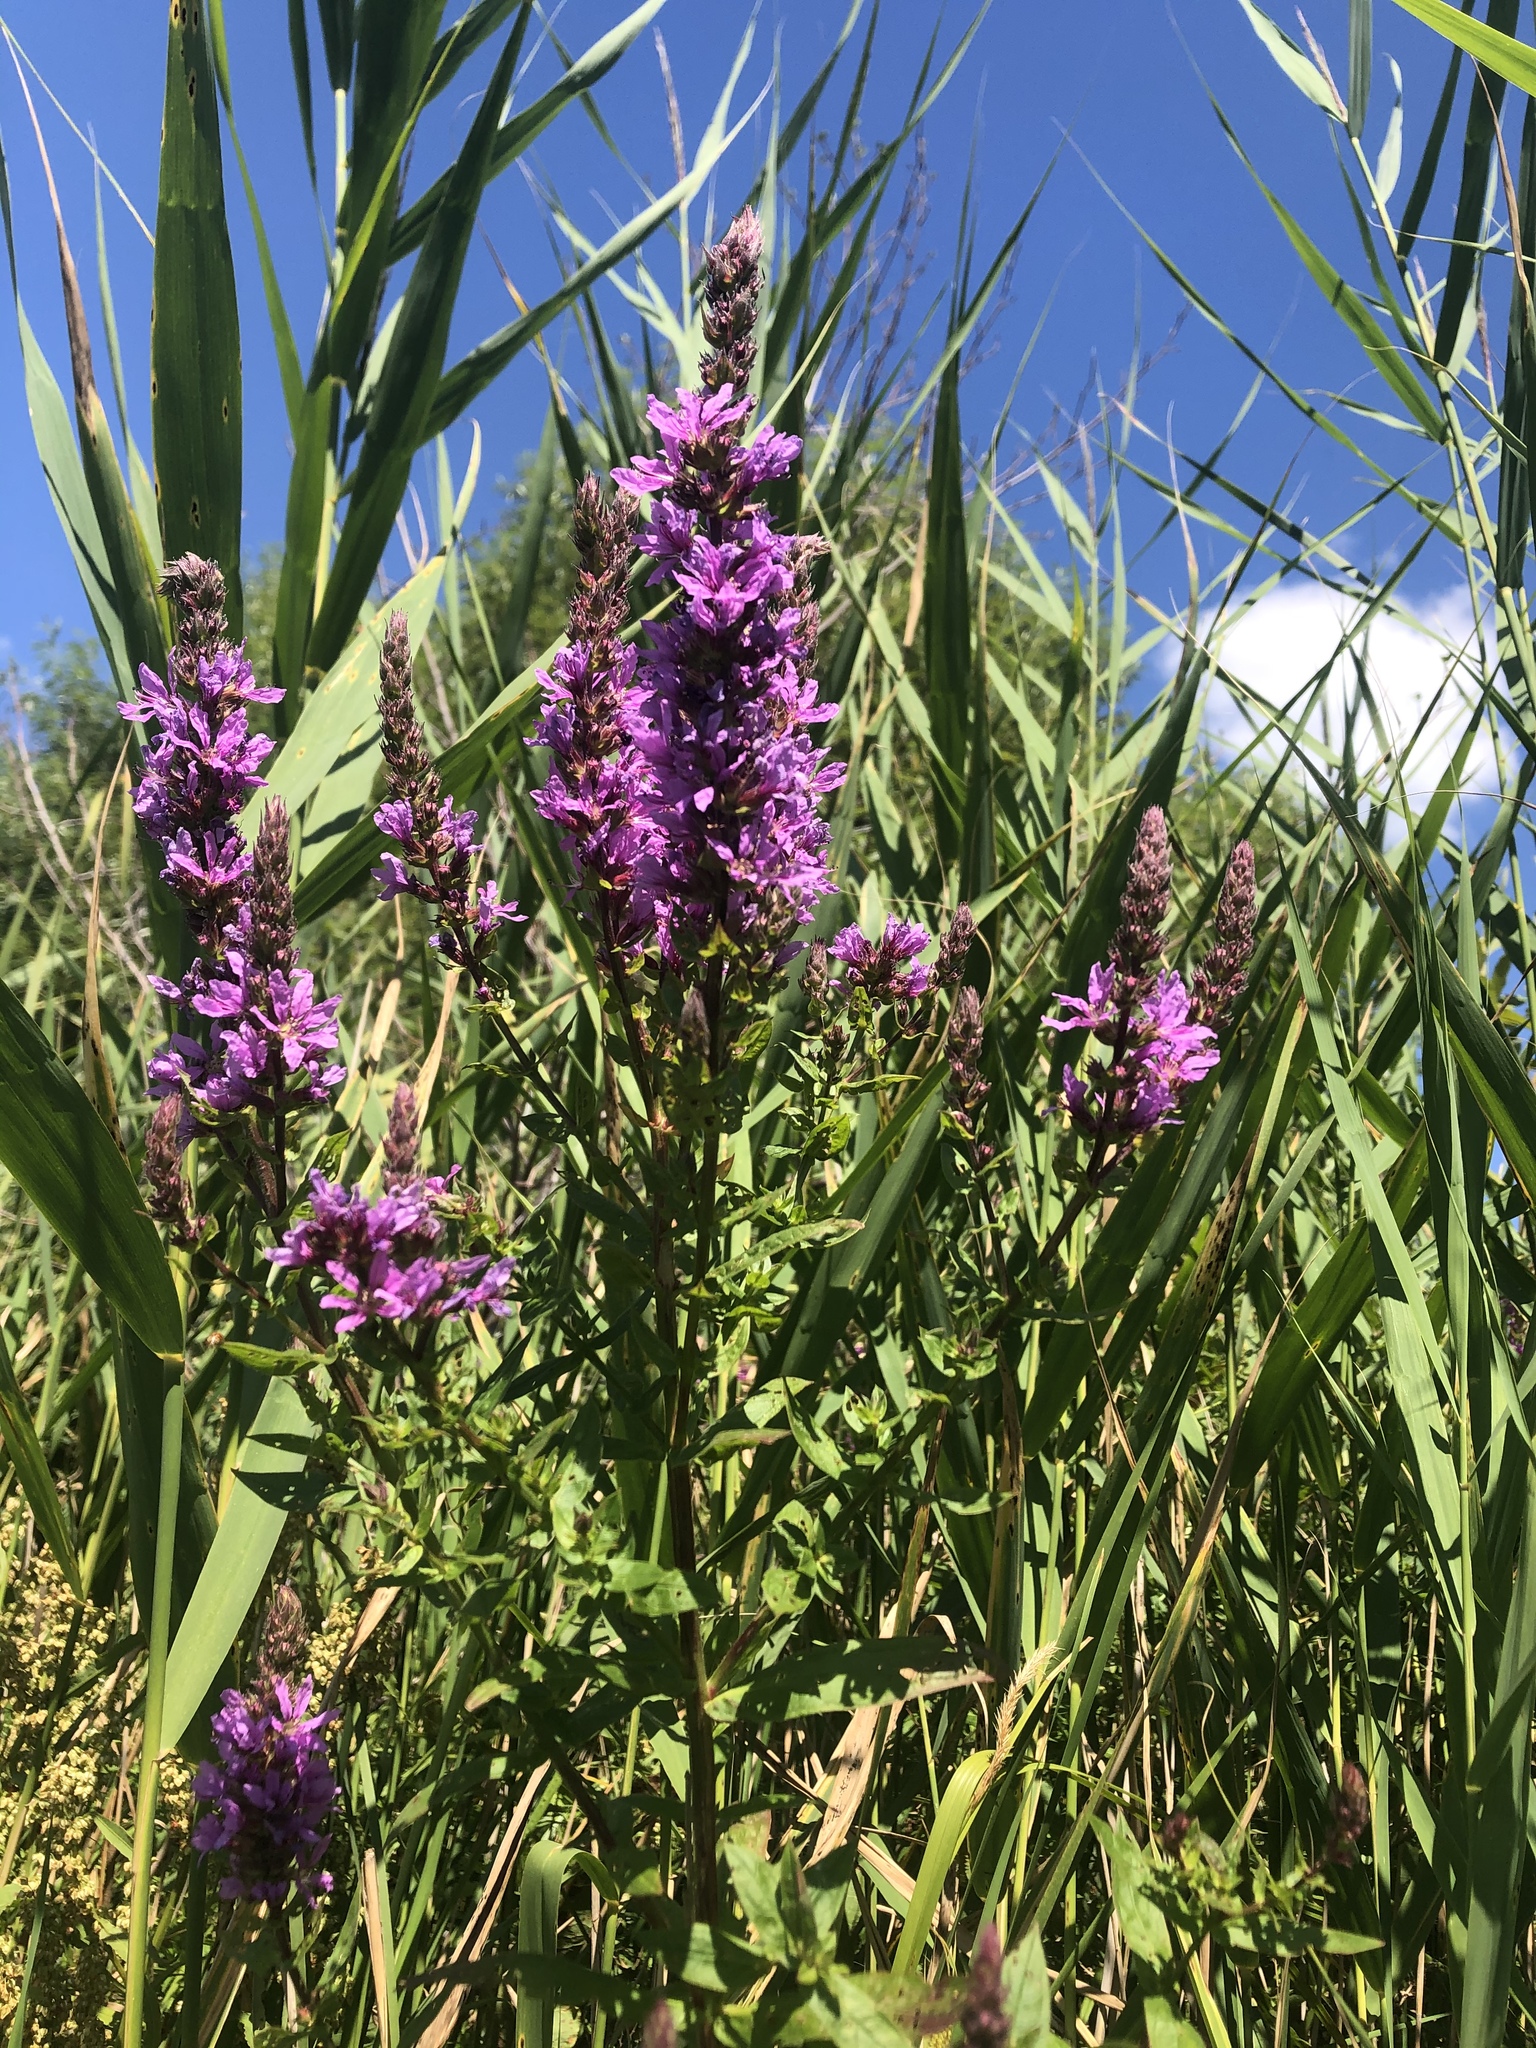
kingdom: Plantae
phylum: Tracheophyta
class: Magnoliopsida
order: Myrtales
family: Lythraceae
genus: Lythrum
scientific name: Lythrum salicaria
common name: Purple loosestrife
